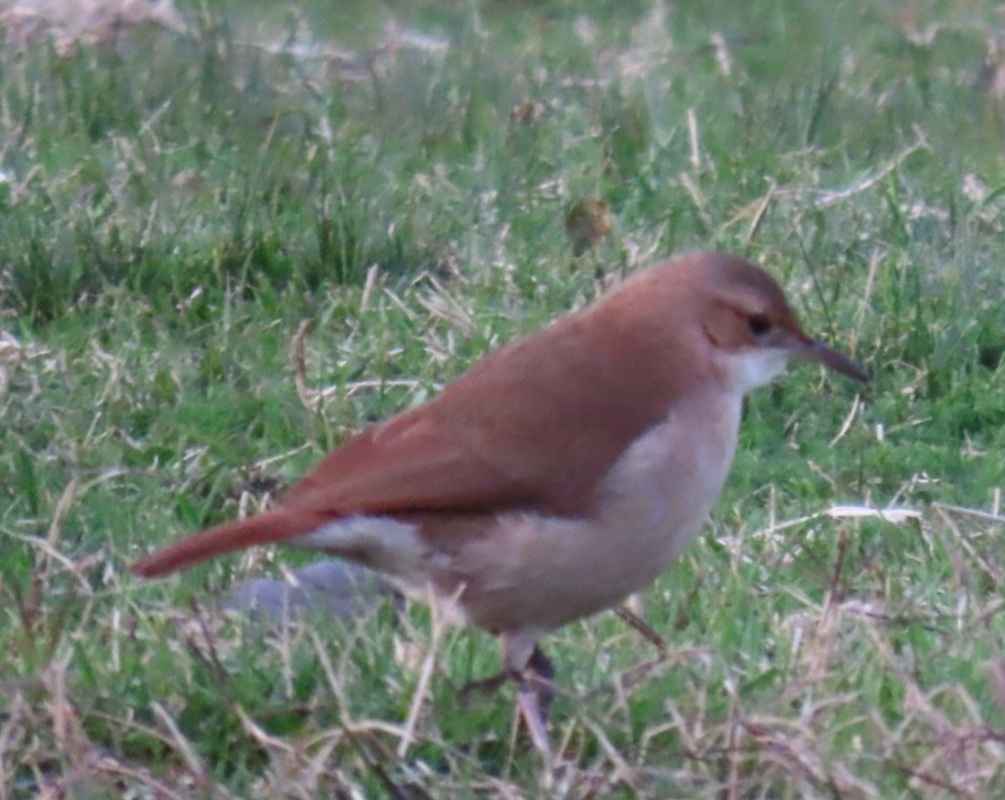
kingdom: Animalia
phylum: Chordata
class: Aves
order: Passeriformes
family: Furnariidae
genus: Furnarius
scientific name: Furnarius rufus
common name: Rufous hornero
